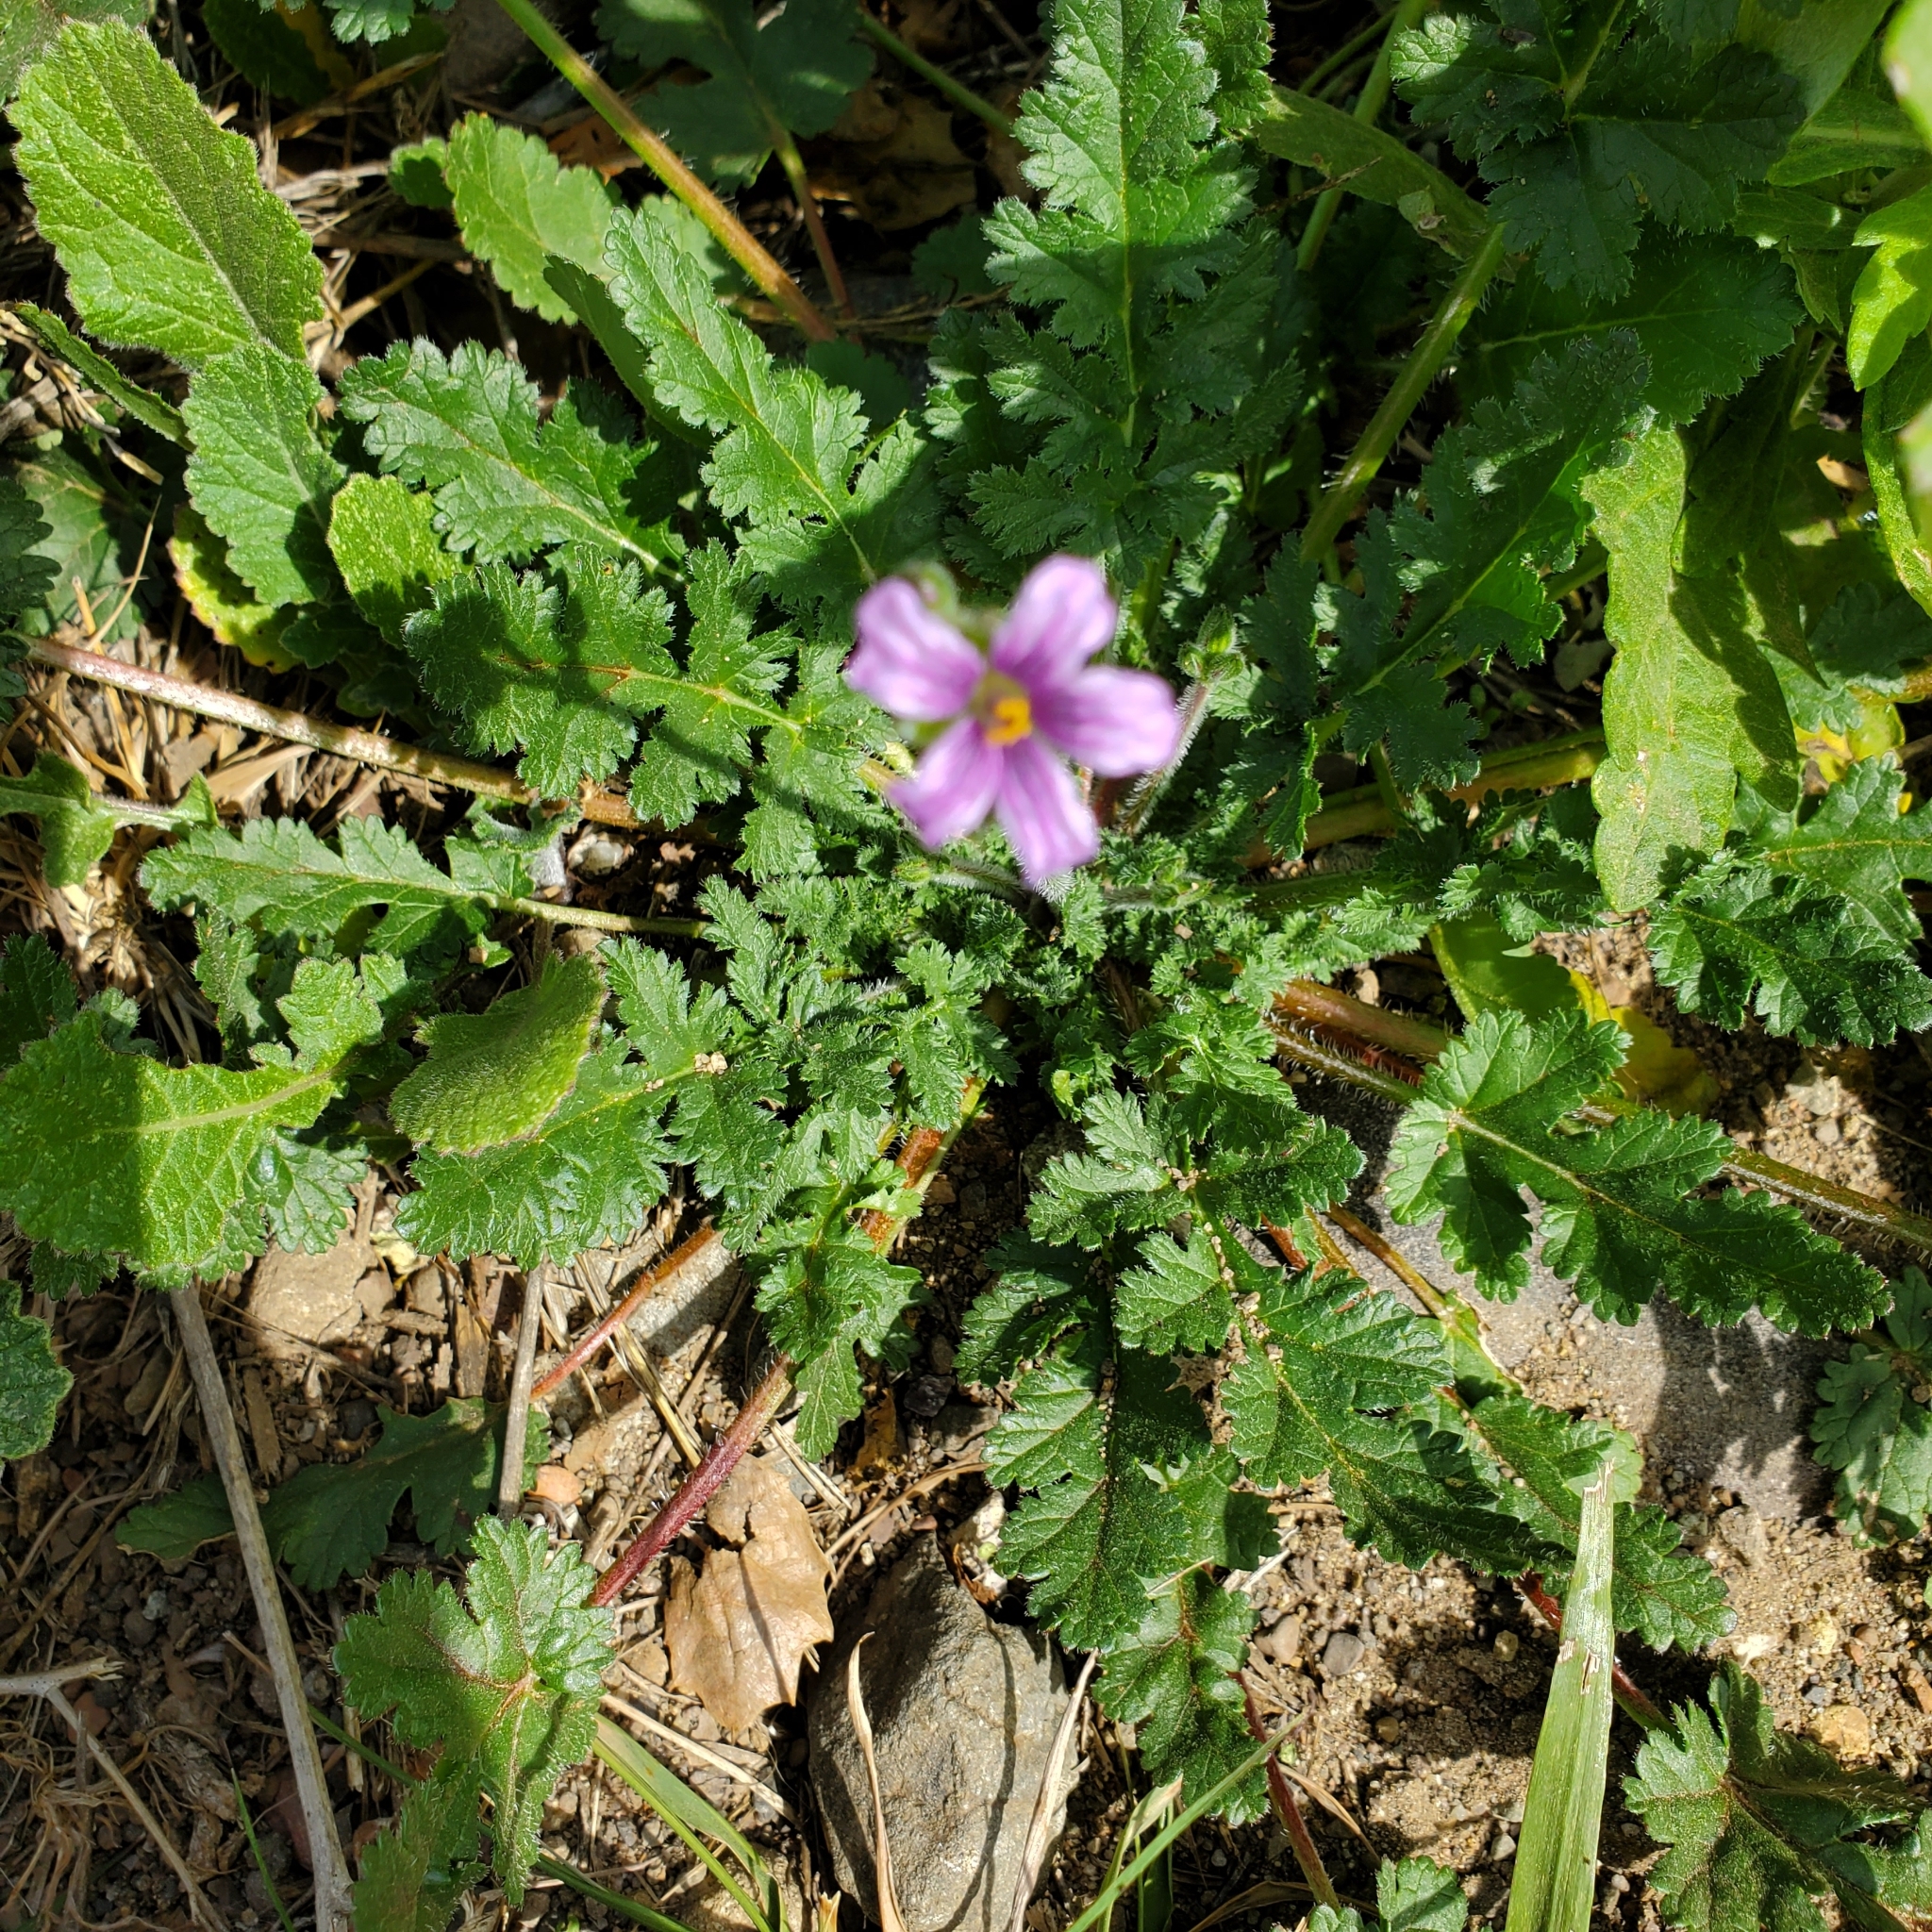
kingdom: Plantae
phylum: Tracheophyta
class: Magnoliopsida
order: Geraniales
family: Geraniaceae
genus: Erodium
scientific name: Erodium botrys
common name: Mediterranean stork's-bill
